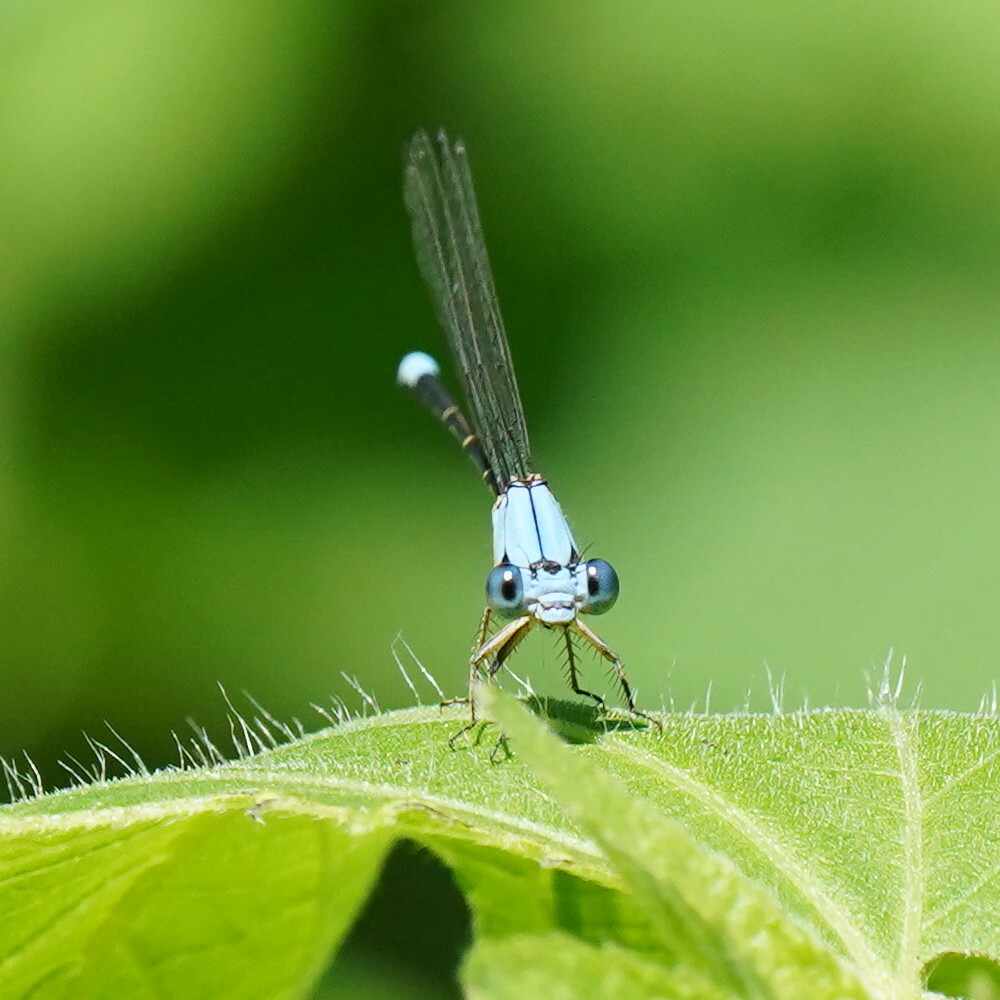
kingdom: Animalia
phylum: Arthropoda
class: Insecta
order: Odonata
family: Coenagrionidae
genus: Argia
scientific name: Argia apicalis
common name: Blue-fronted dancer
